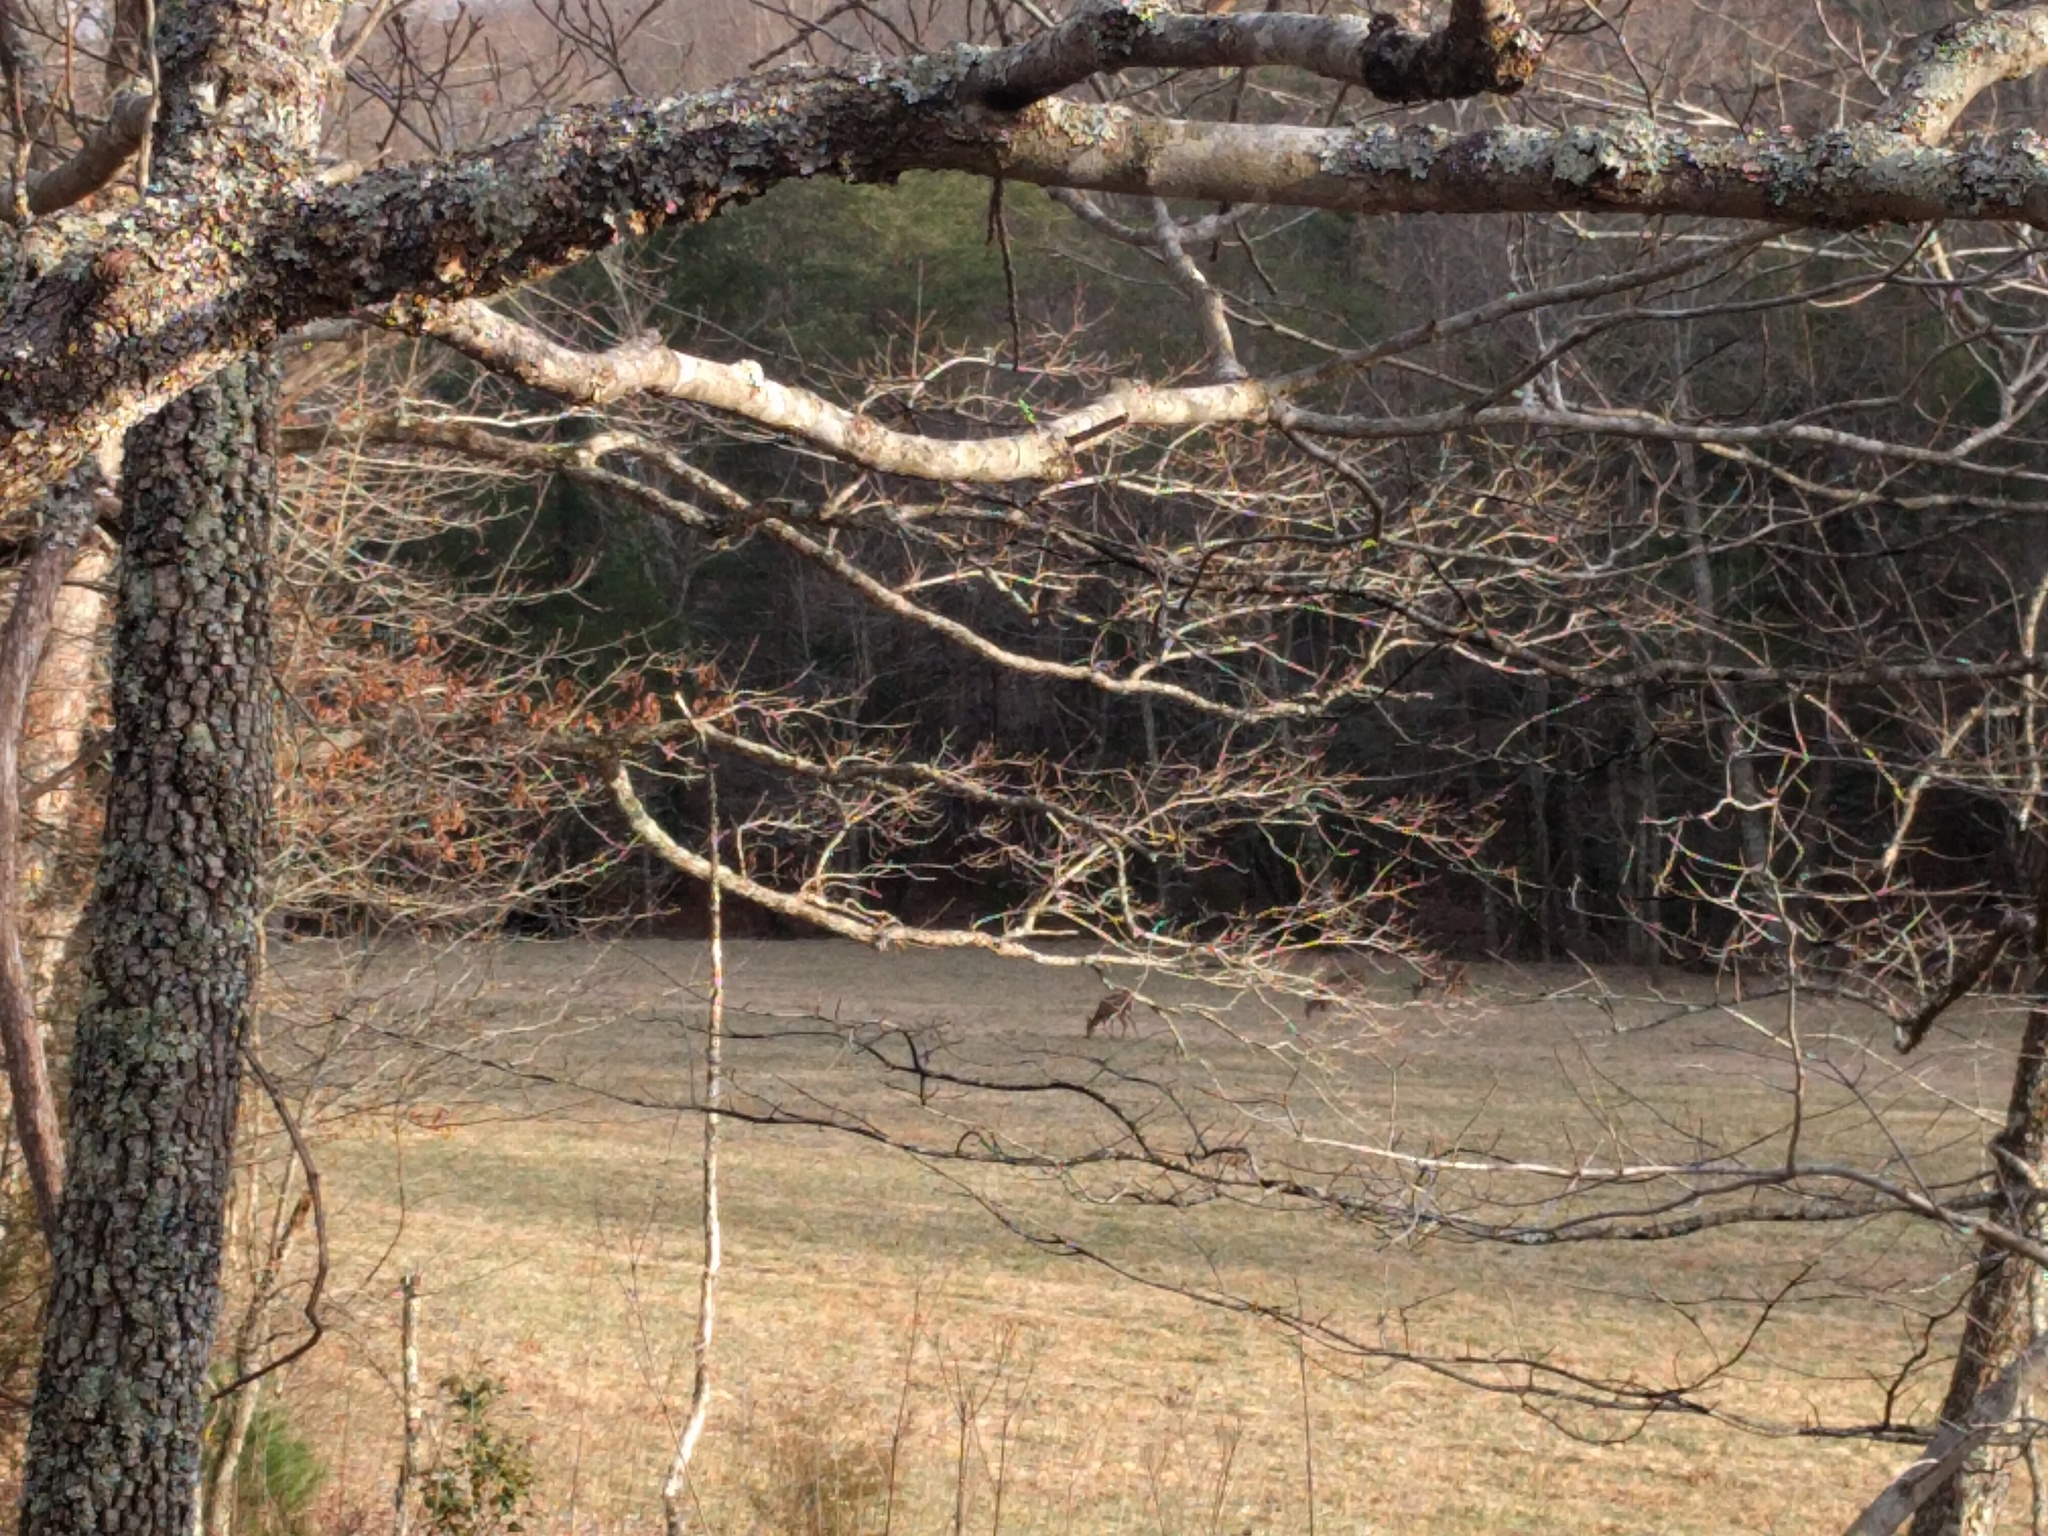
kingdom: Animalia
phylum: Chordata
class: Mammalia
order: Artiodactyla
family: Cervidae
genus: Odocoileus
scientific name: Odocoileus virginianus
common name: White-tailed deer
